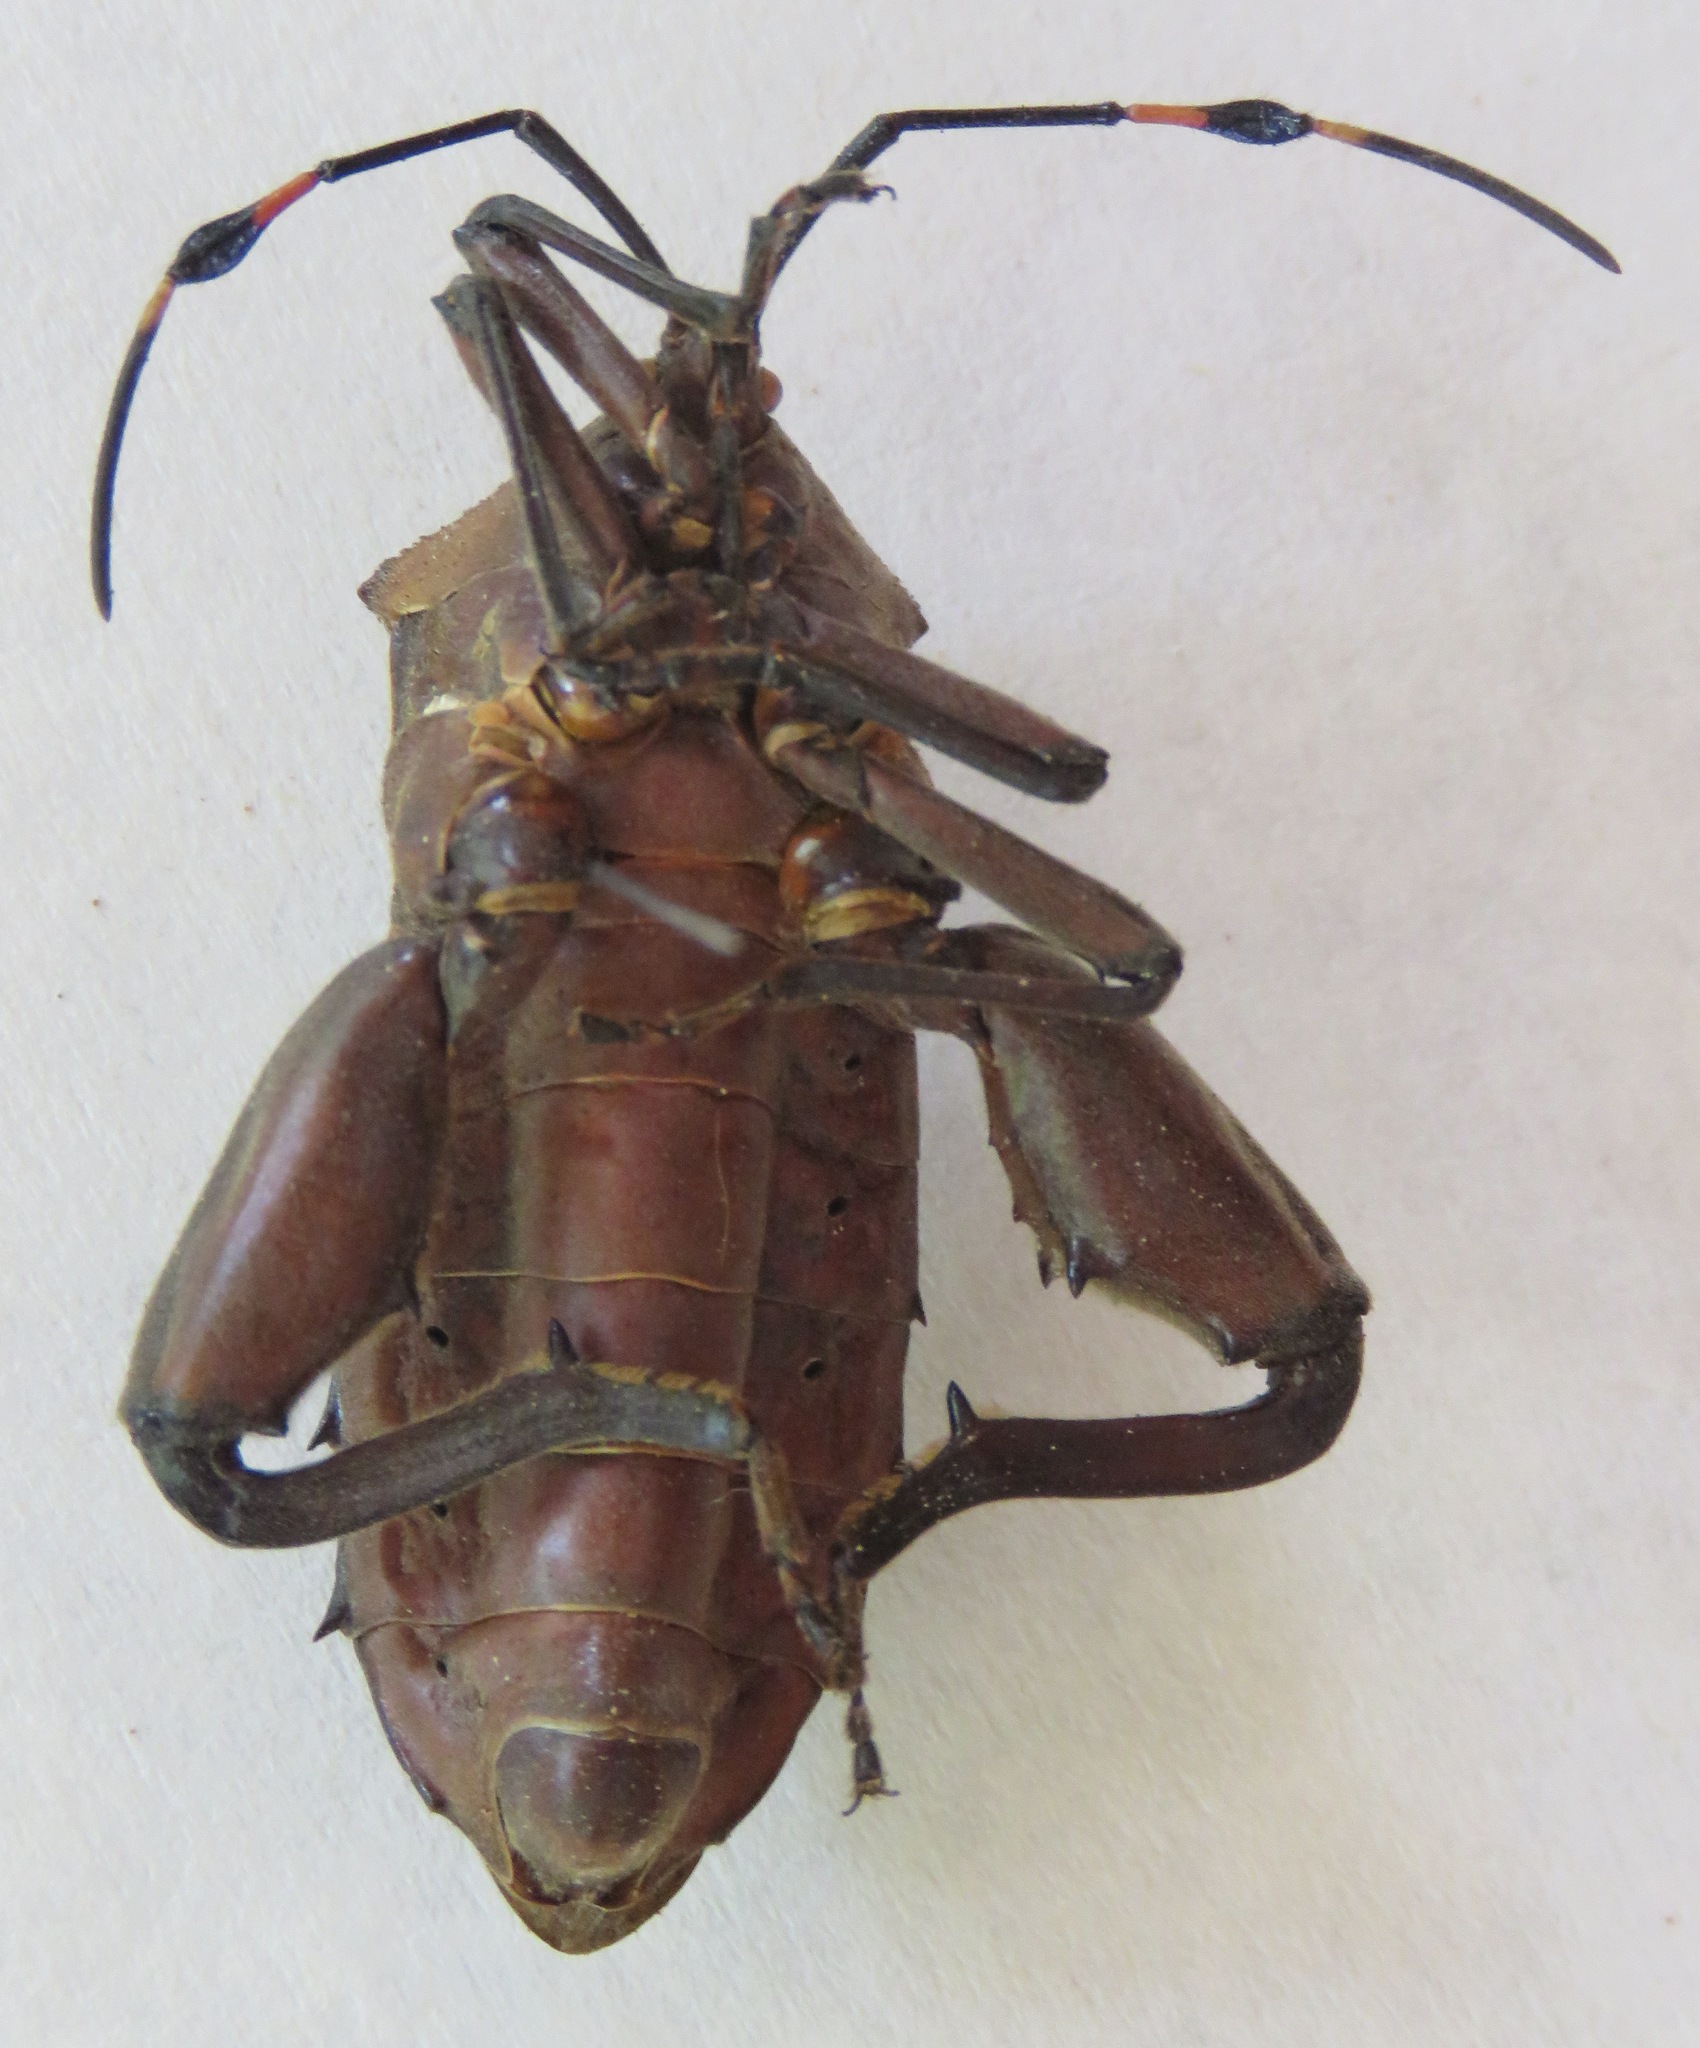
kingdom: Animalia
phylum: Arthropoda
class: Insecta
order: Hemiptera
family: Coreidae
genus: Pachylis
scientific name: Pachylis nervosus
